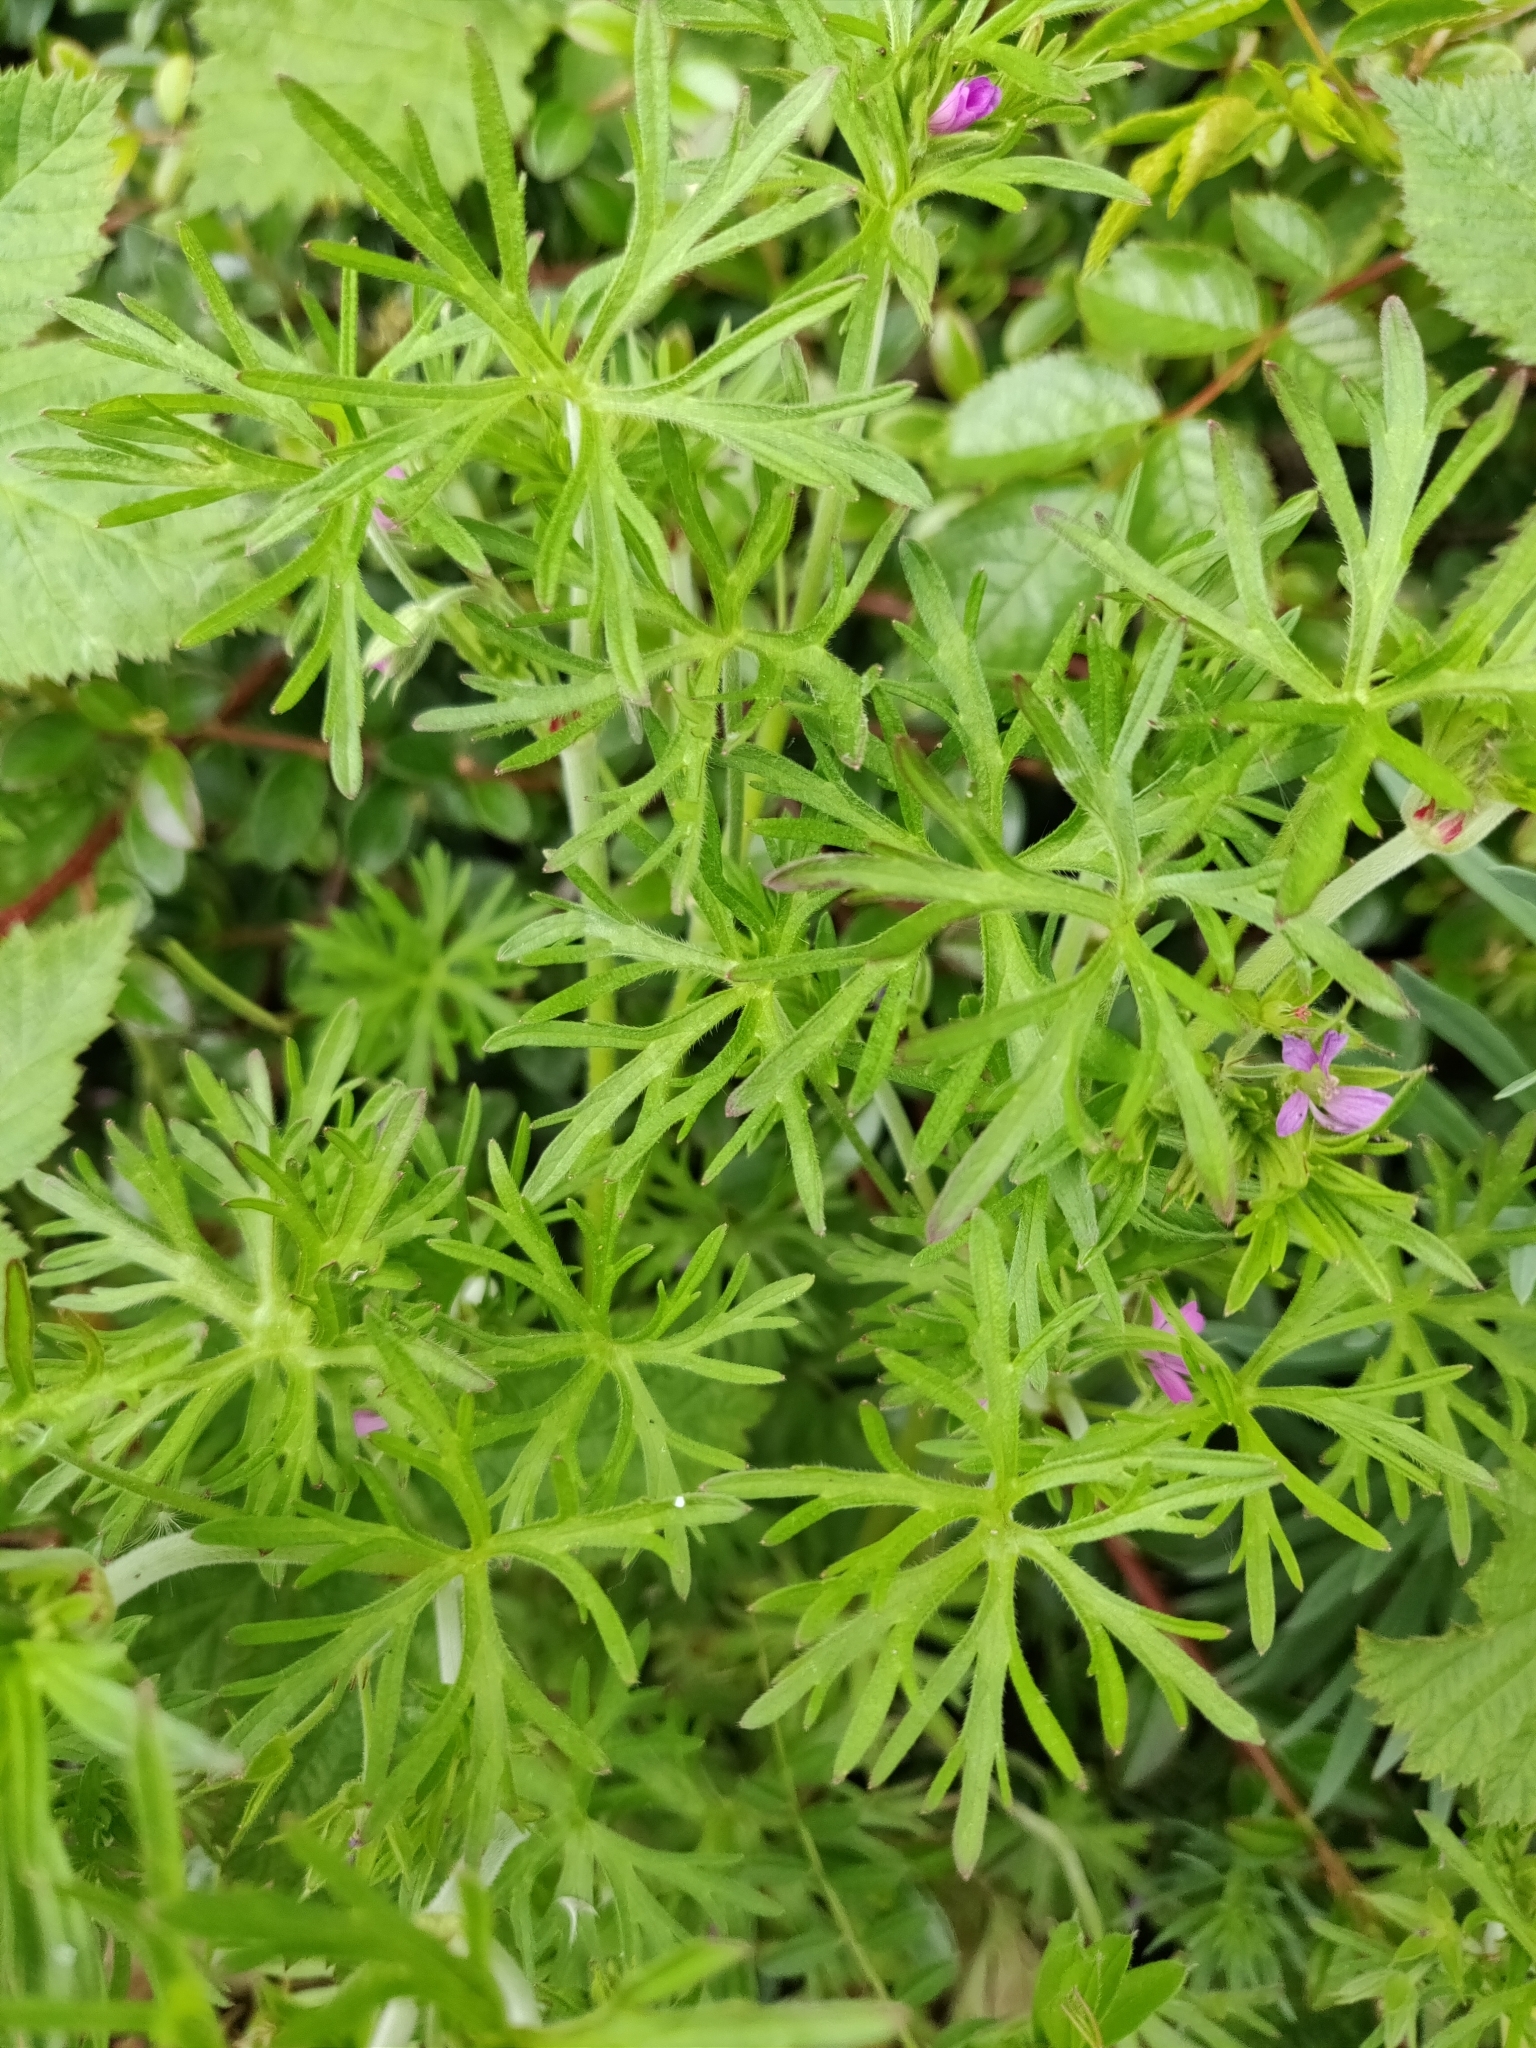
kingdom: Plantae
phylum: Tracheophyta
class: Magnoliopsida
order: Geraniales
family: Geraniaceae
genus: Geranium
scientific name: Geranium dissectum
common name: Cut-leaved crane's-bill
